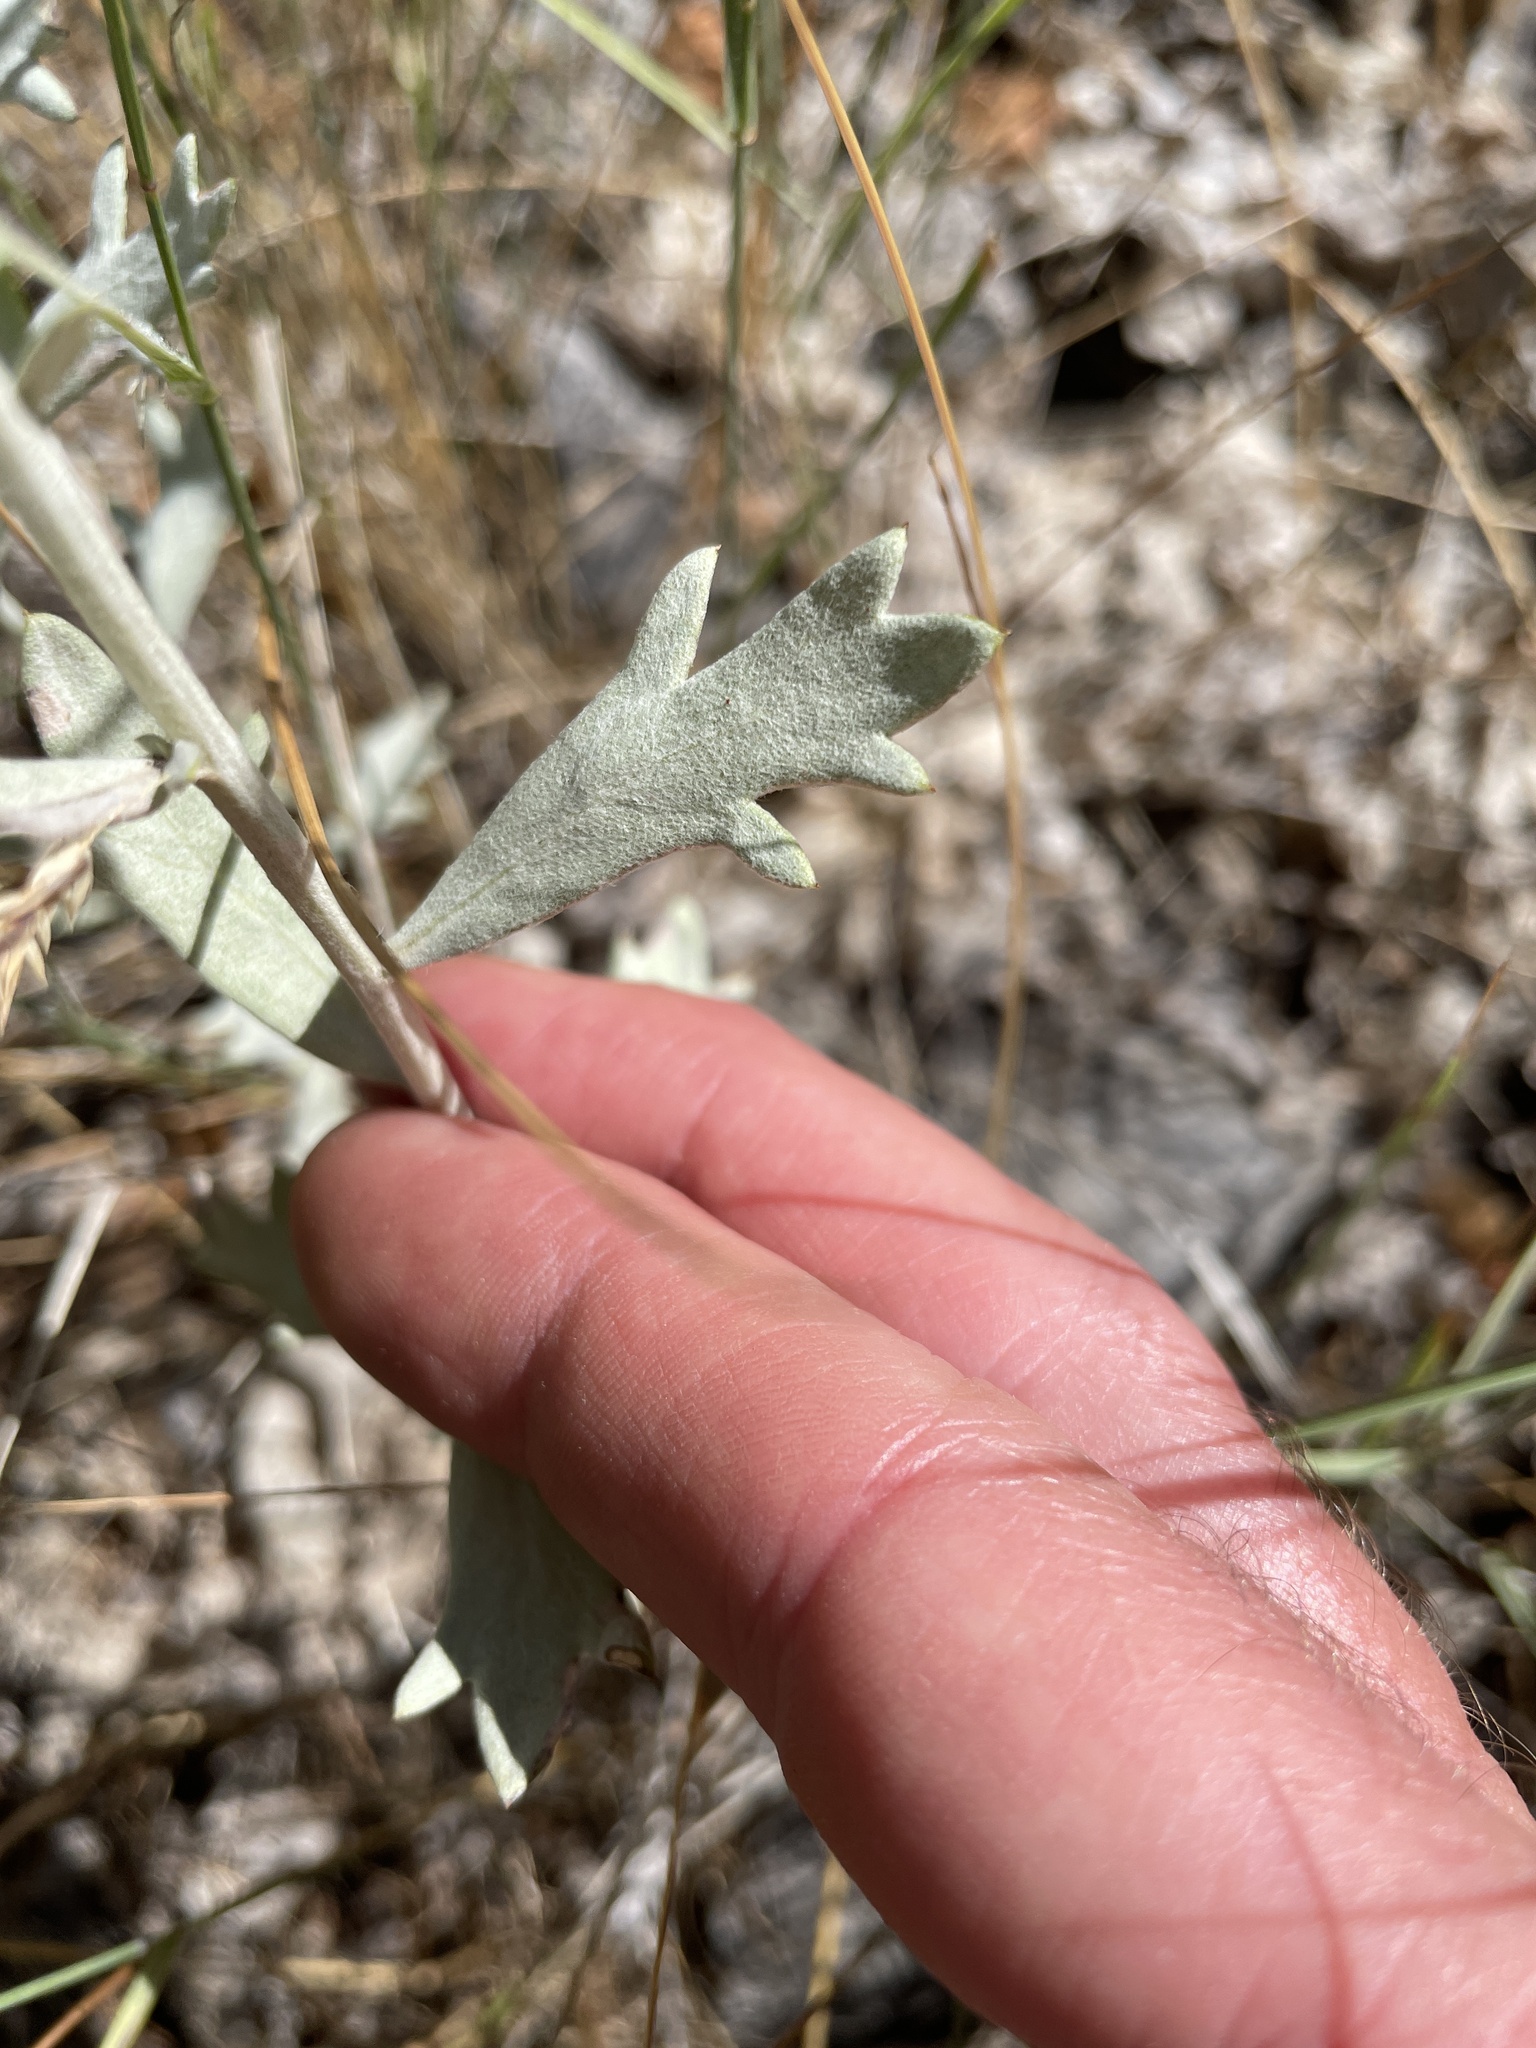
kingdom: Plantae
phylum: Tracheophyta
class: Magnoliopsida
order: Asterales
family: Asteraceae
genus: Artemisia
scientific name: Artemisia ludoviciana
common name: Western mugwort
